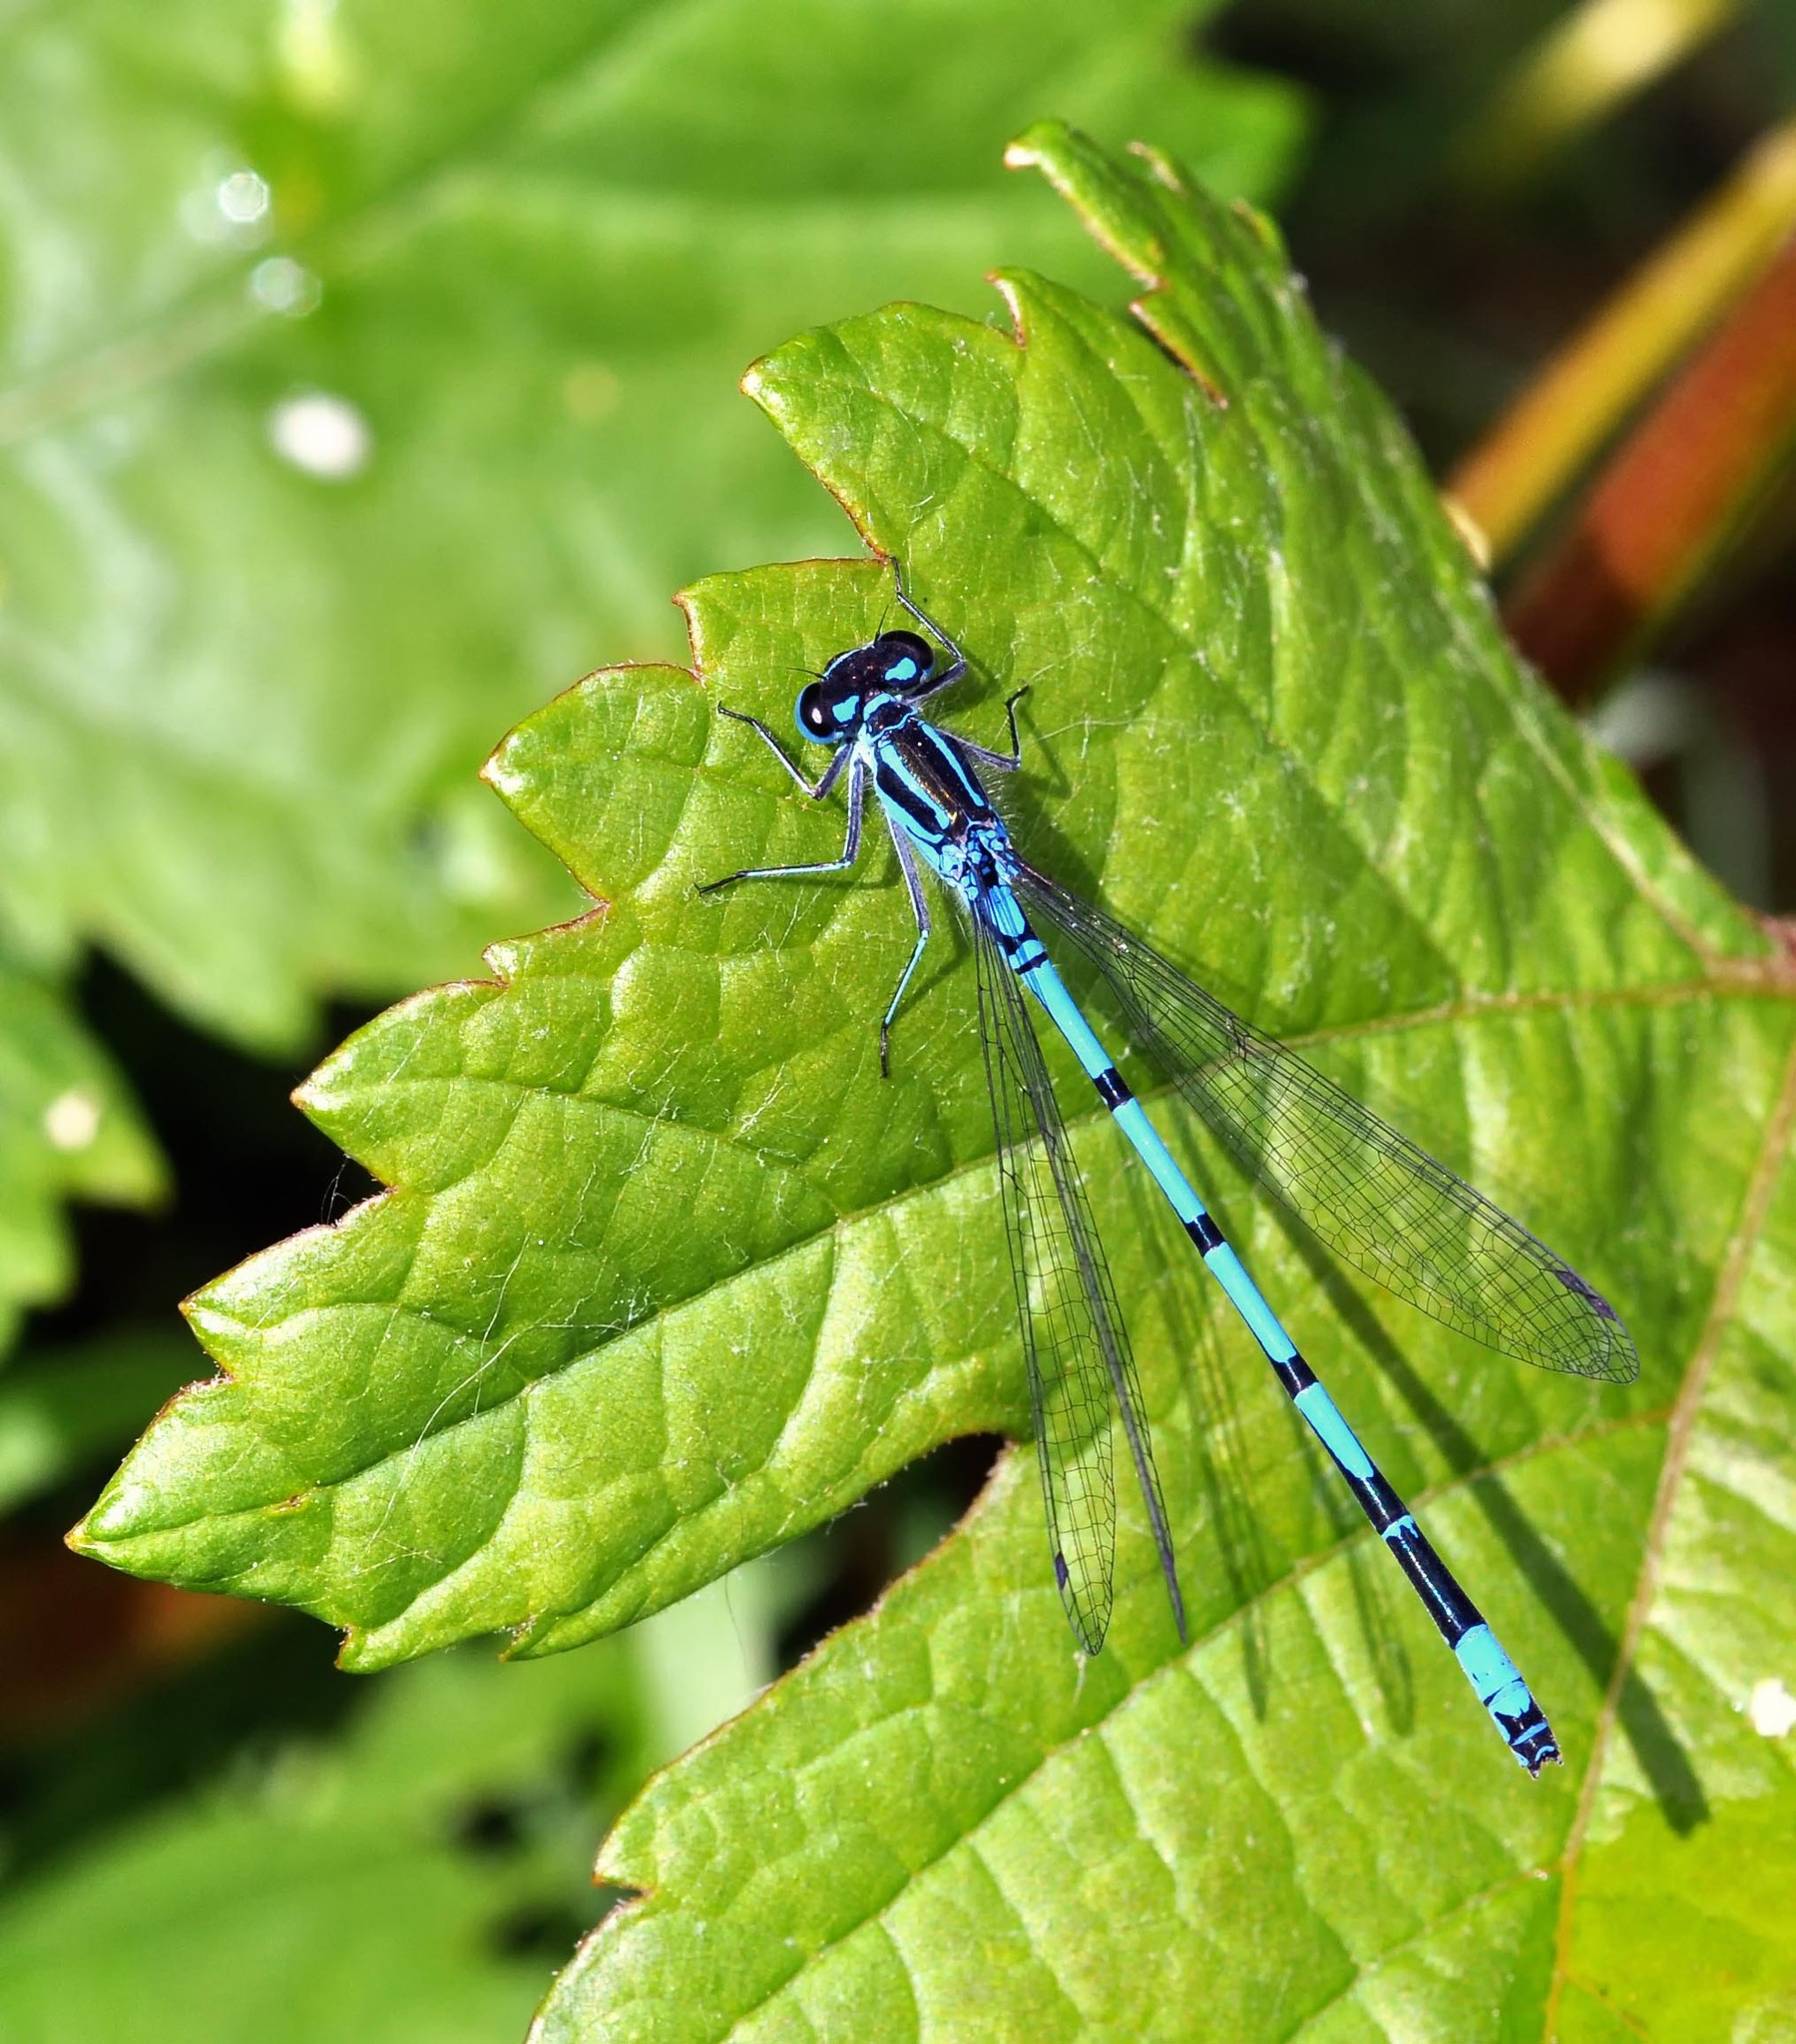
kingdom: Animalia
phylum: Arthropoda
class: Insecta
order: Odonata
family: Coenagrionidae
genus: Coenagrion
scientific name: Coenagrion puella
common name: Azure damselfly
